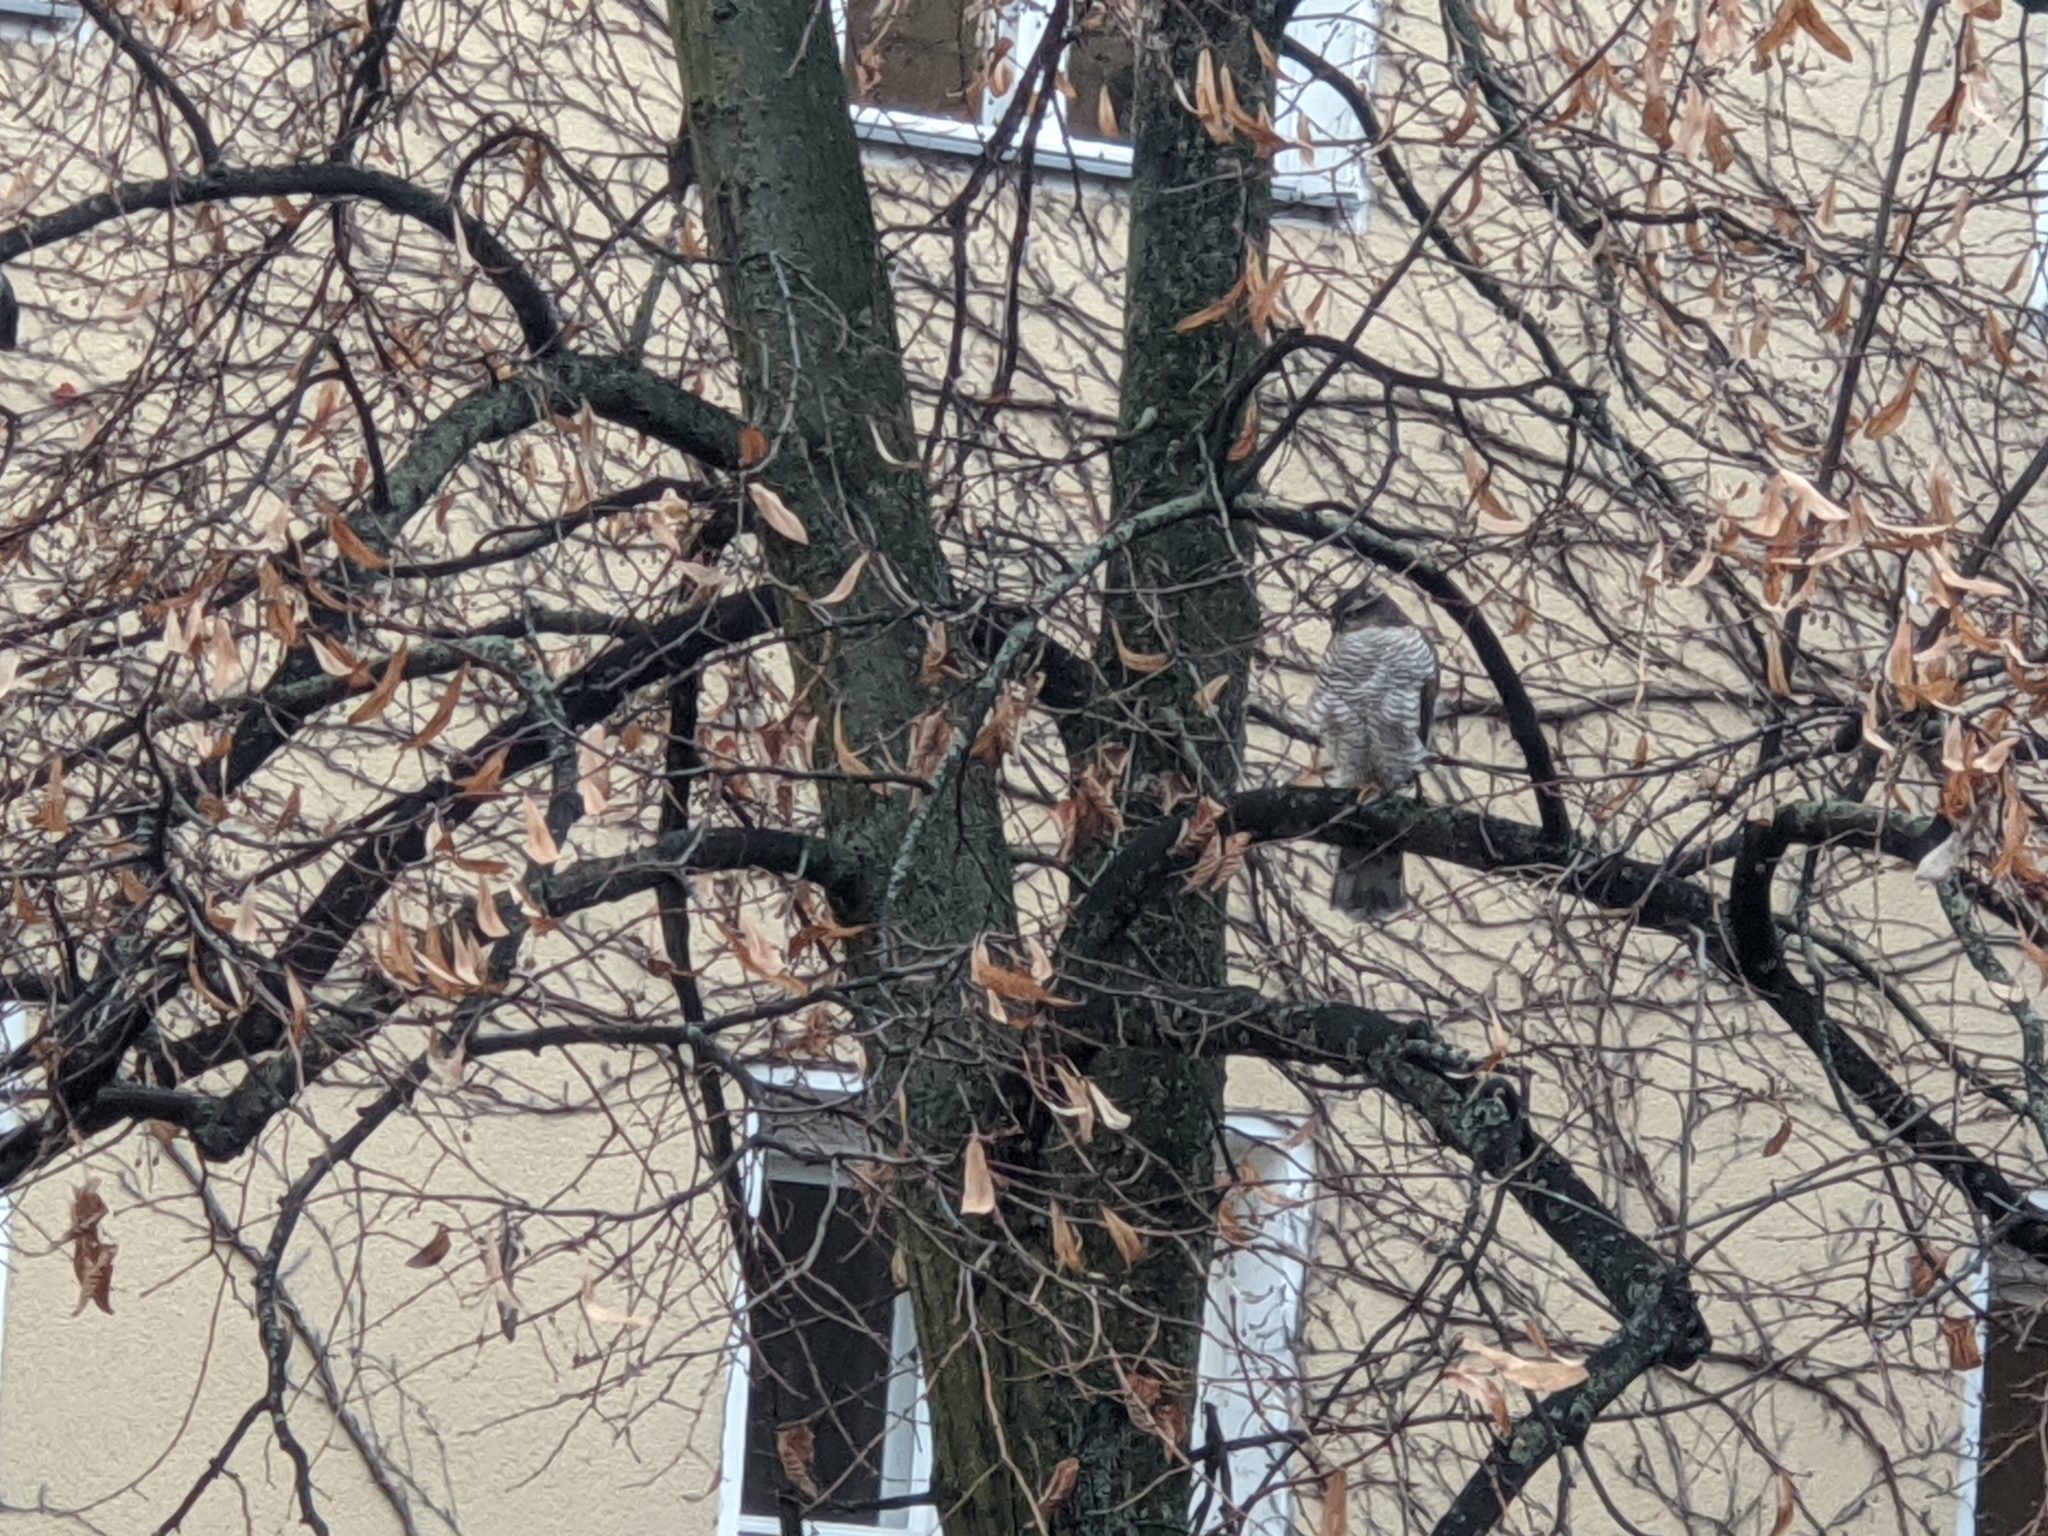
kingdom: Animalia
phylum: Chordata
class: Aves
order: Accipitriformes
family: Accipitridae
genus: Accipiter
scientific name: Accipiter nisus
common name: Eurasian sparrowhawk
